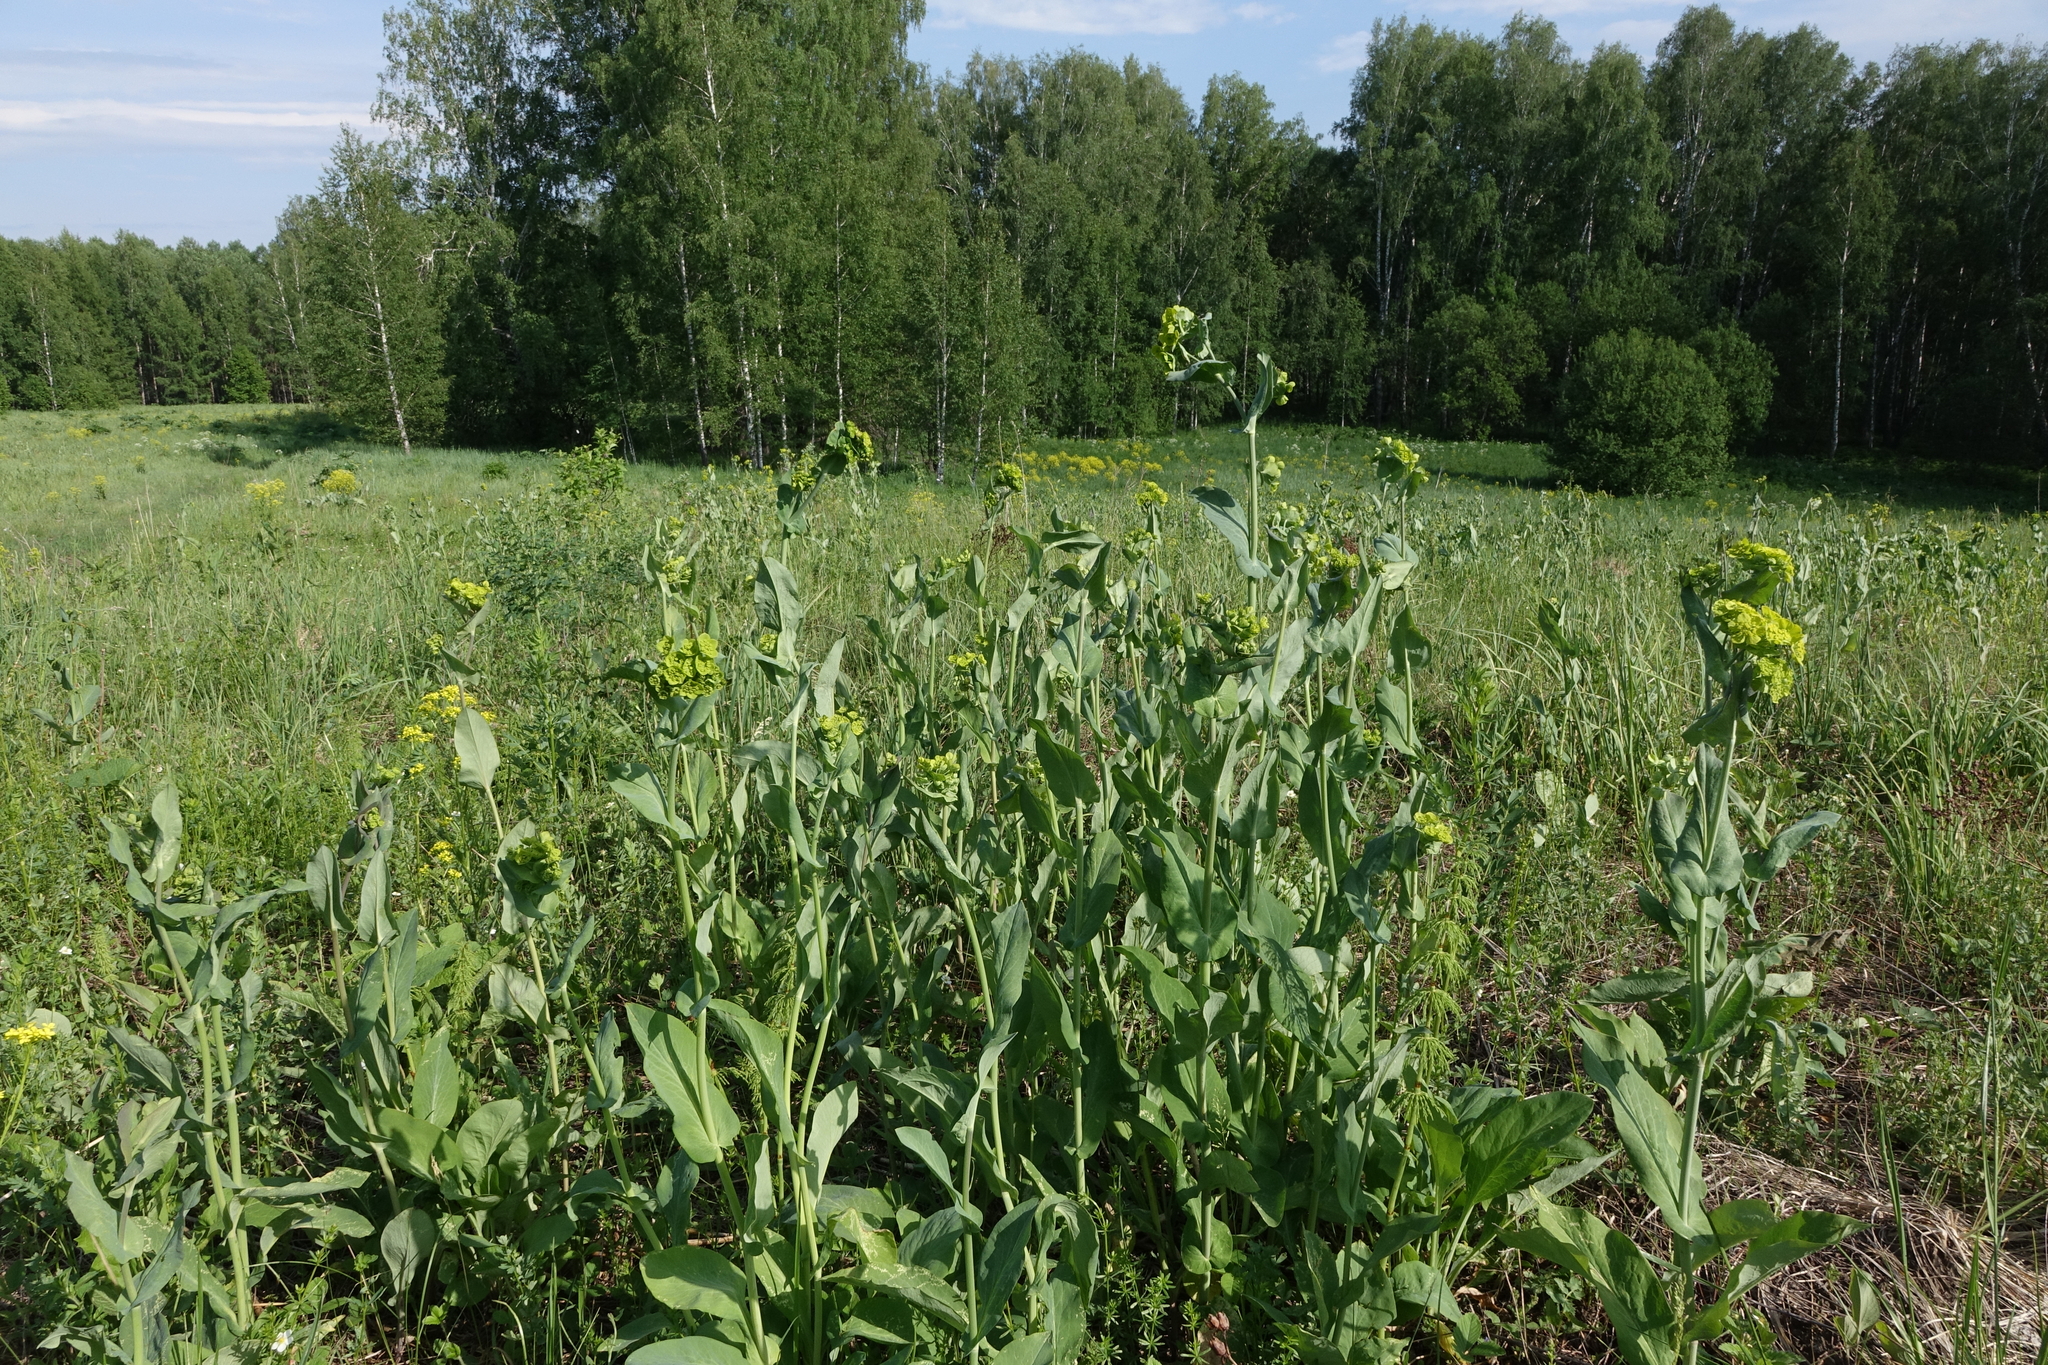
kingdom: Plantae
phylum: Tracheophyta
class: Magnoliopsida
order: Apiales
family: Apiaceae
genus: Bupleurum
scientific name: Bupleurum aureum
